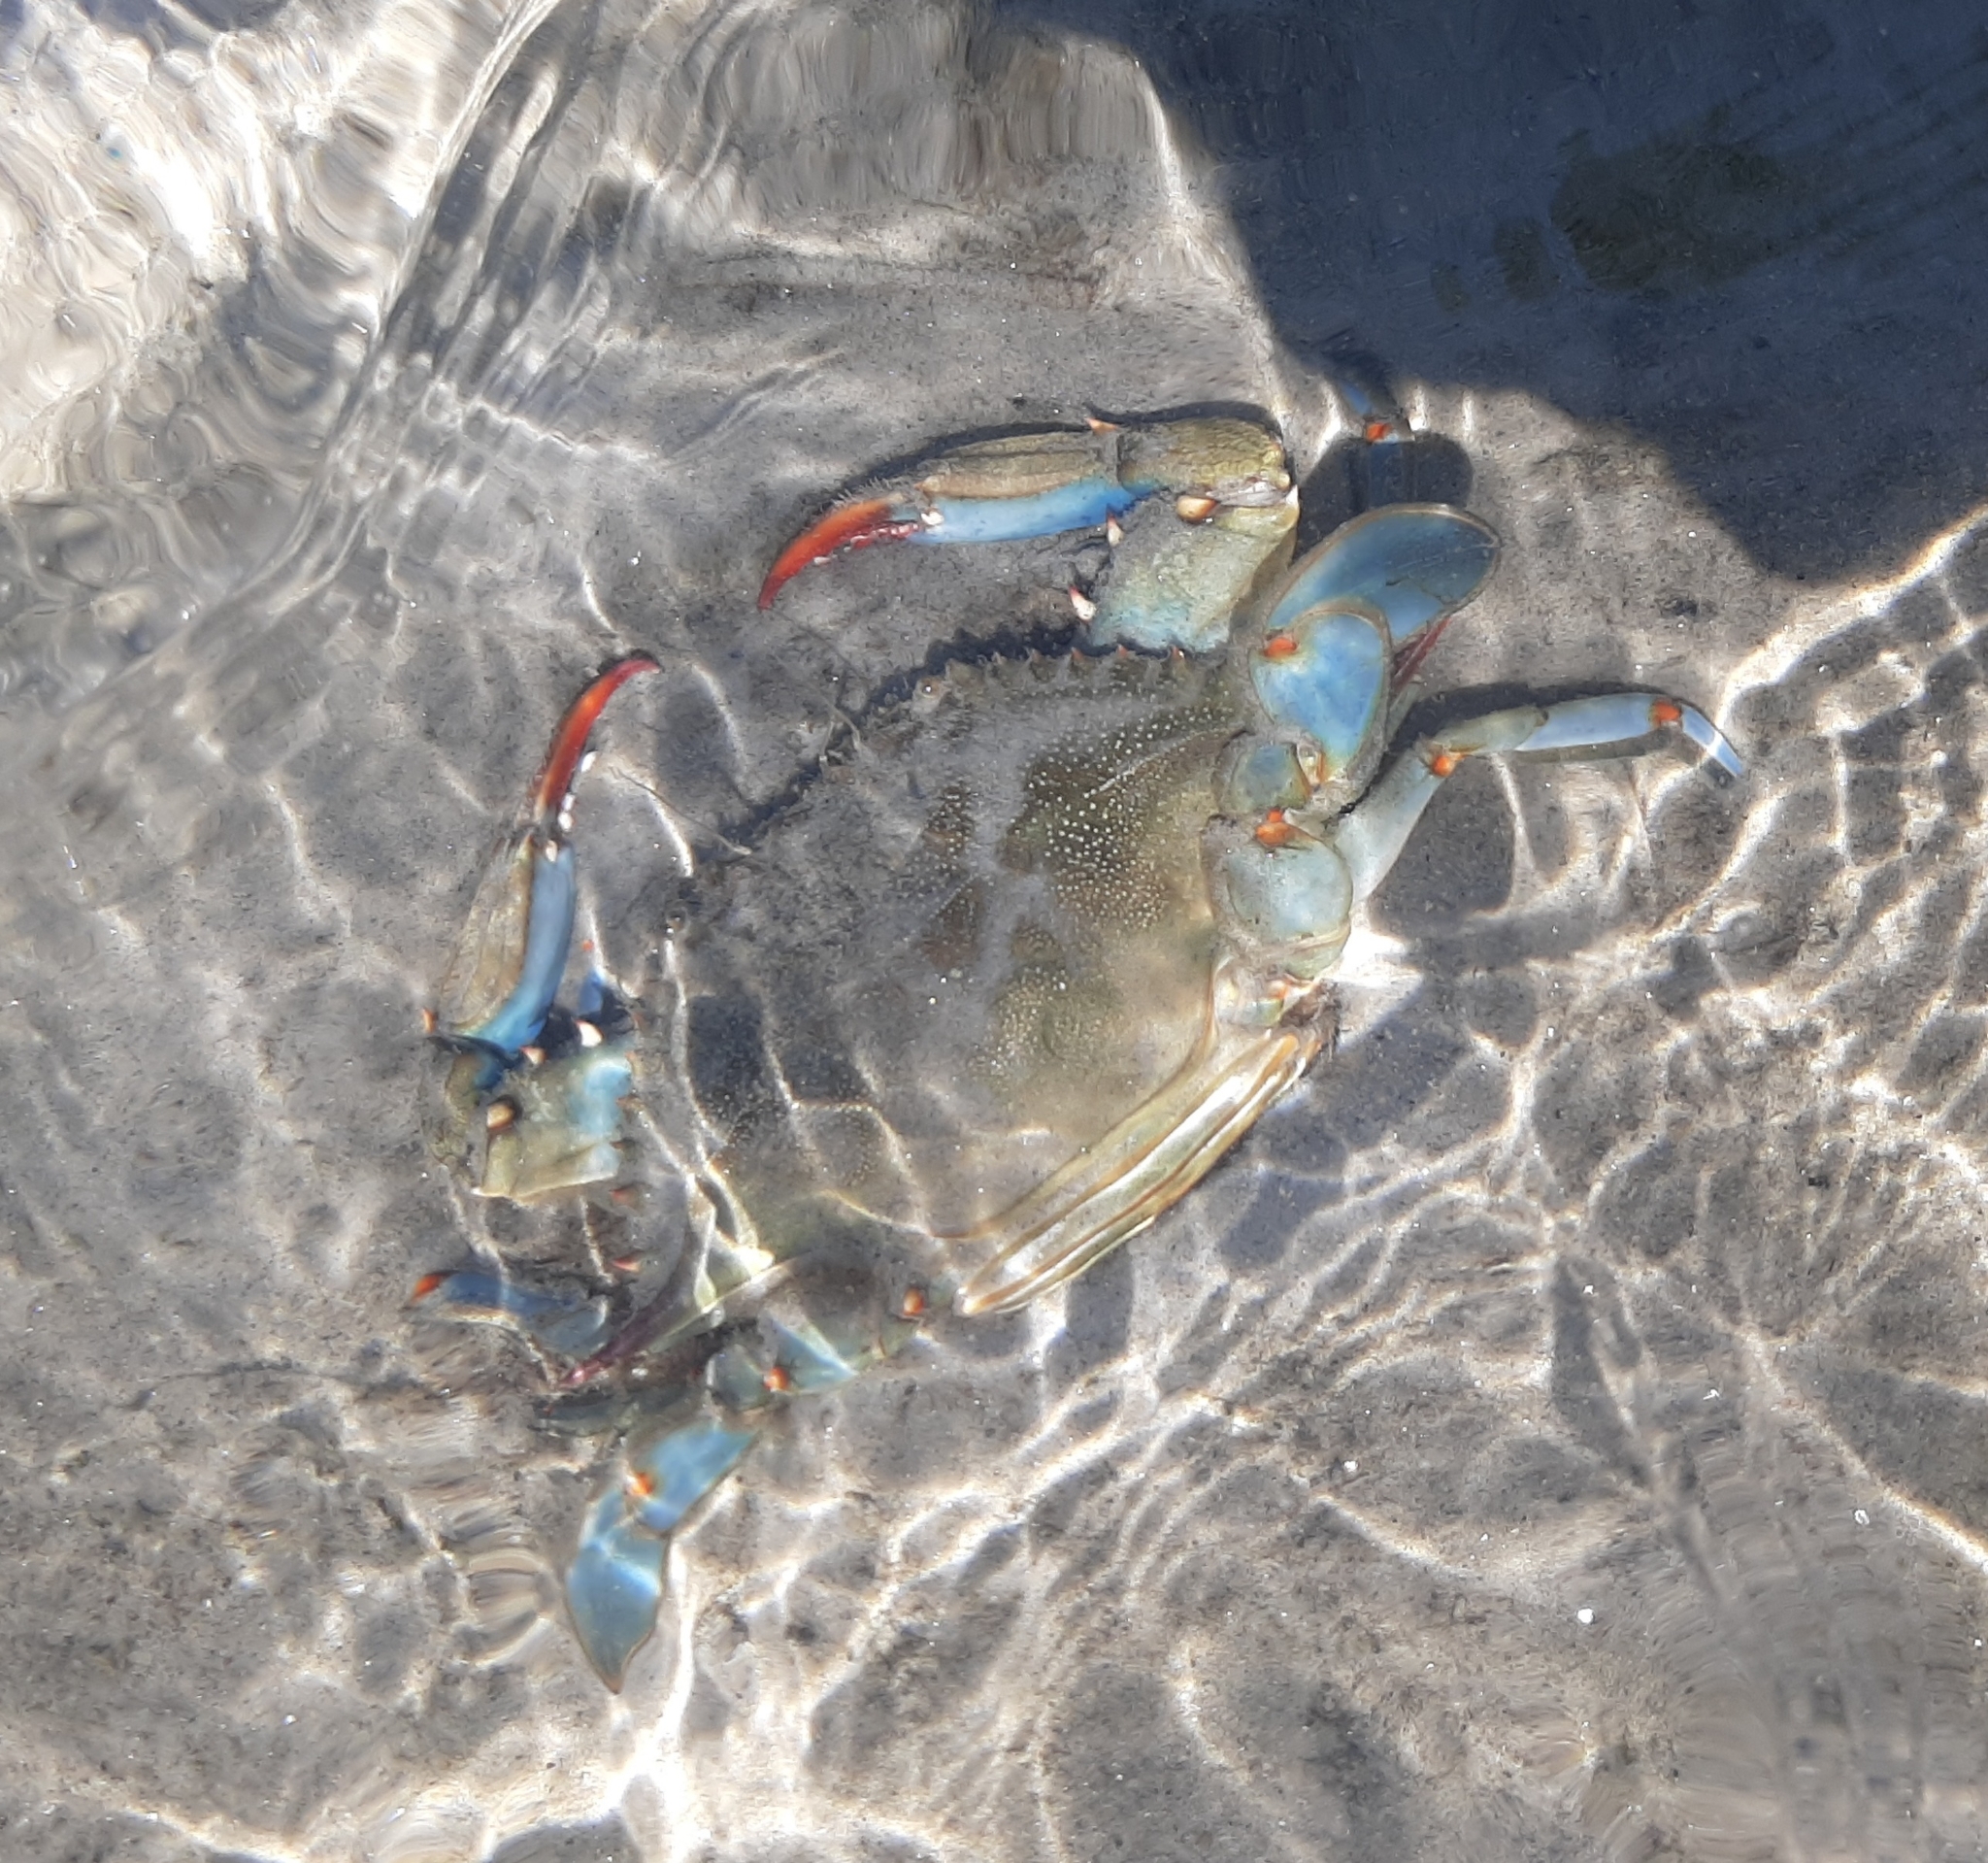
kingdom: Animalia
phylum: Arthropoda
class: Malacostraca
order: Decapoda
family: Portunidae
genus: Callinectes
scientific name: Callinectes sapidus
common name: Blue crab
